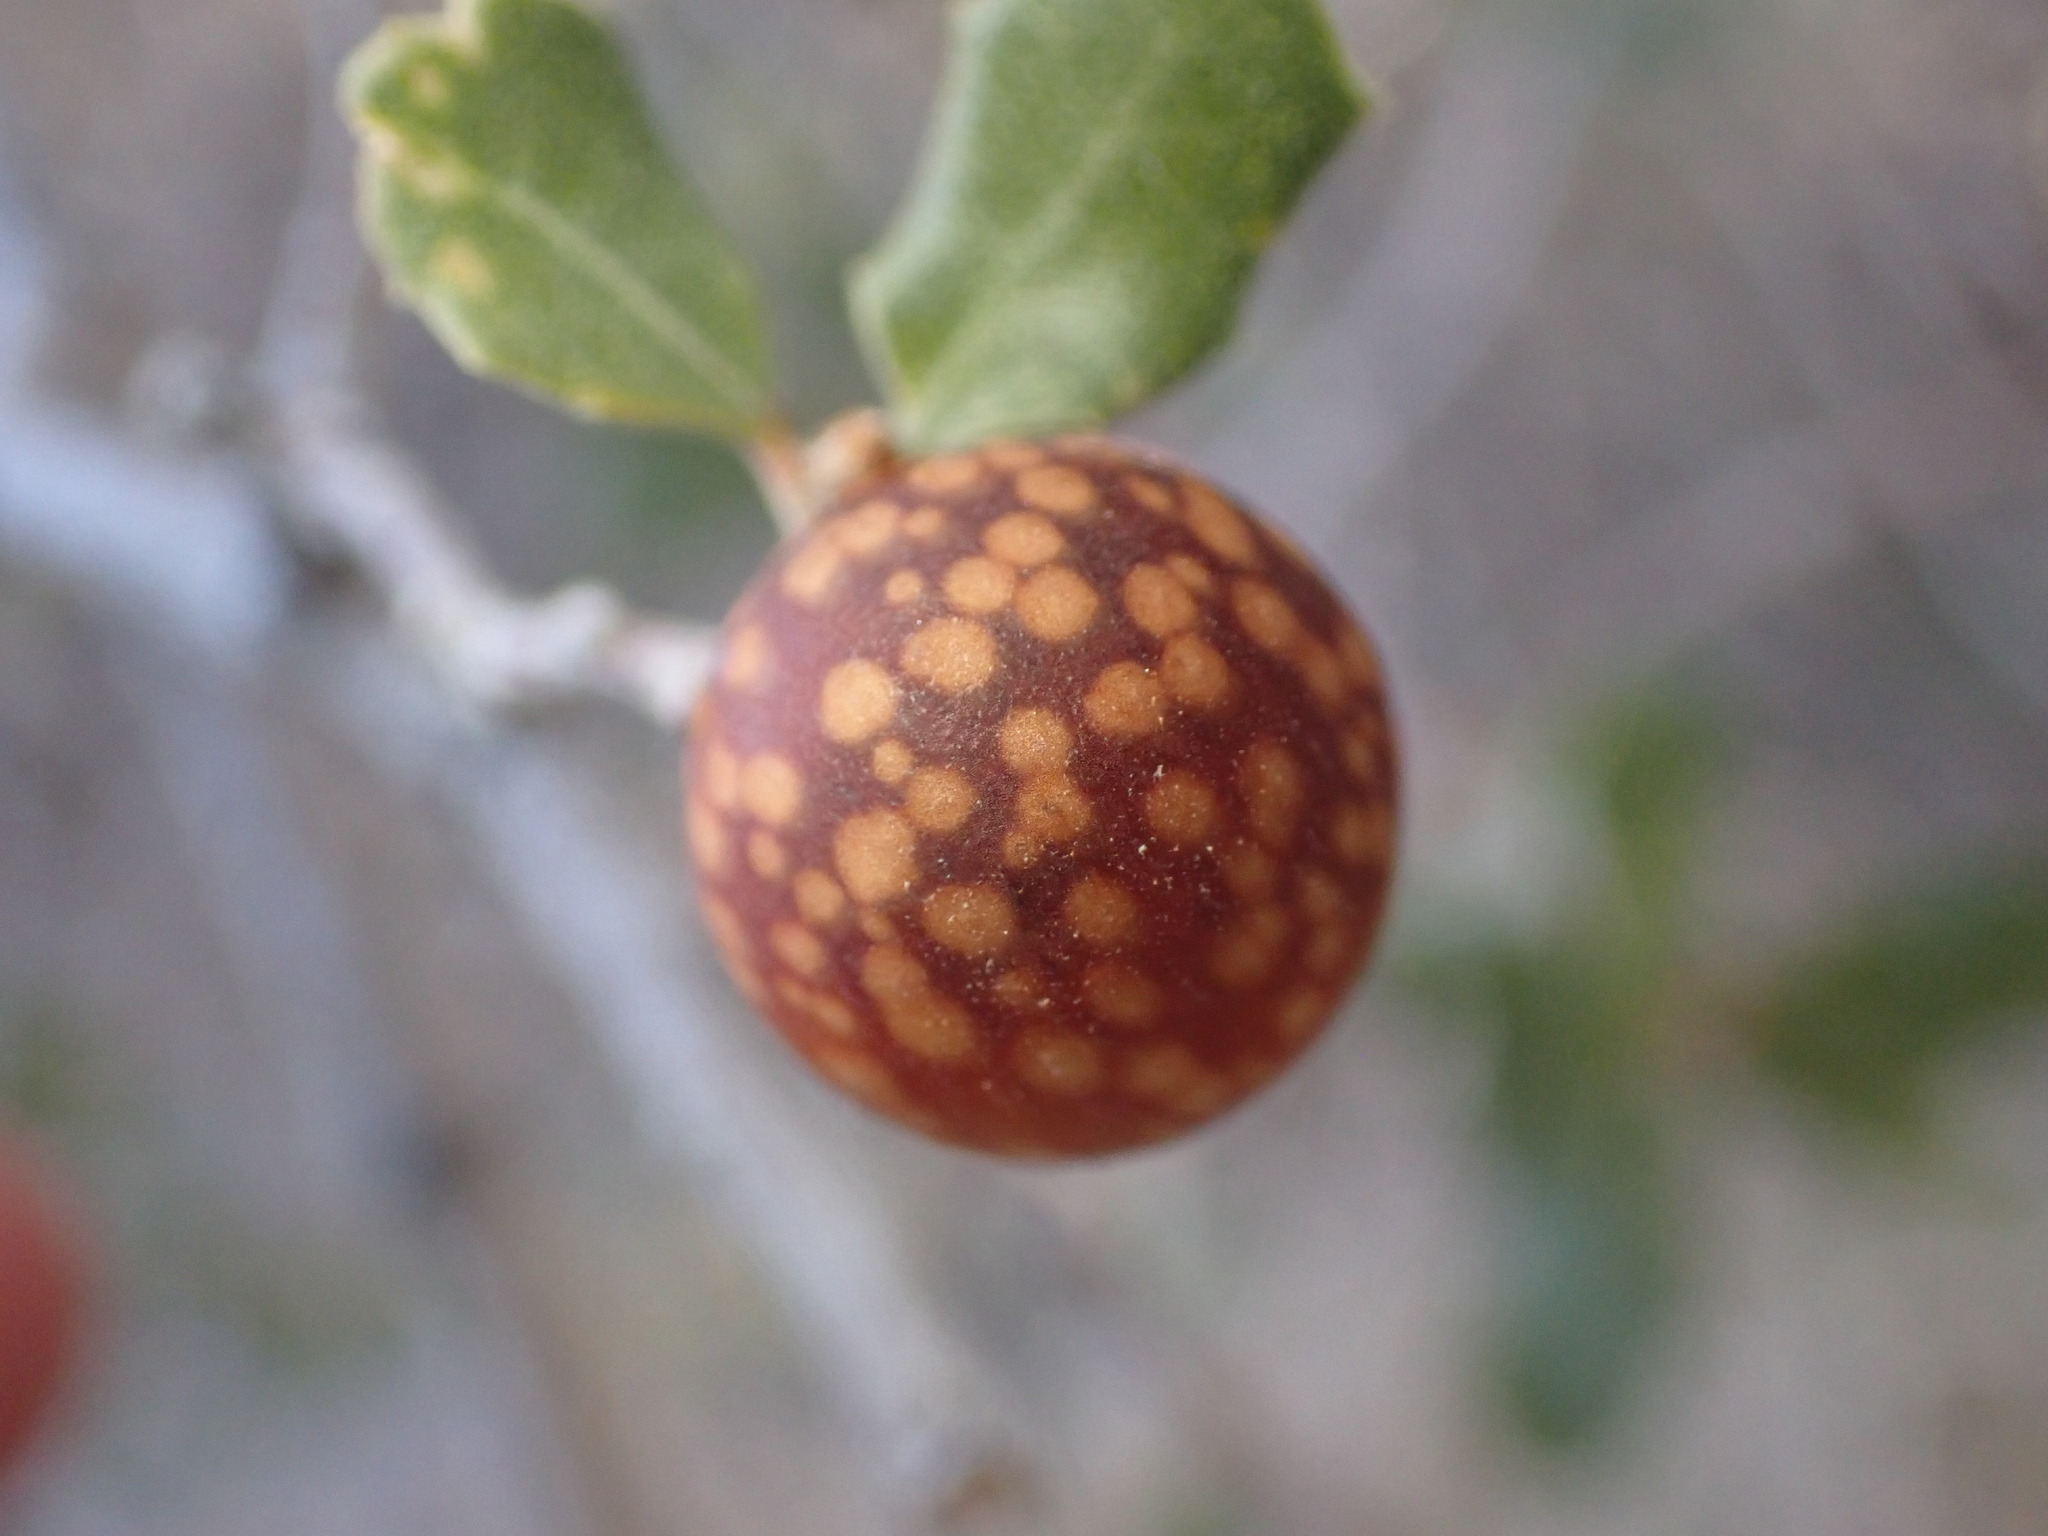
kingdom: Animalia
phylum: Arthropoda
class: Insecta
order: Hymenoptera
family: Cynipidae
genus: Burnettweldia
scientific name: Burnettweldia
